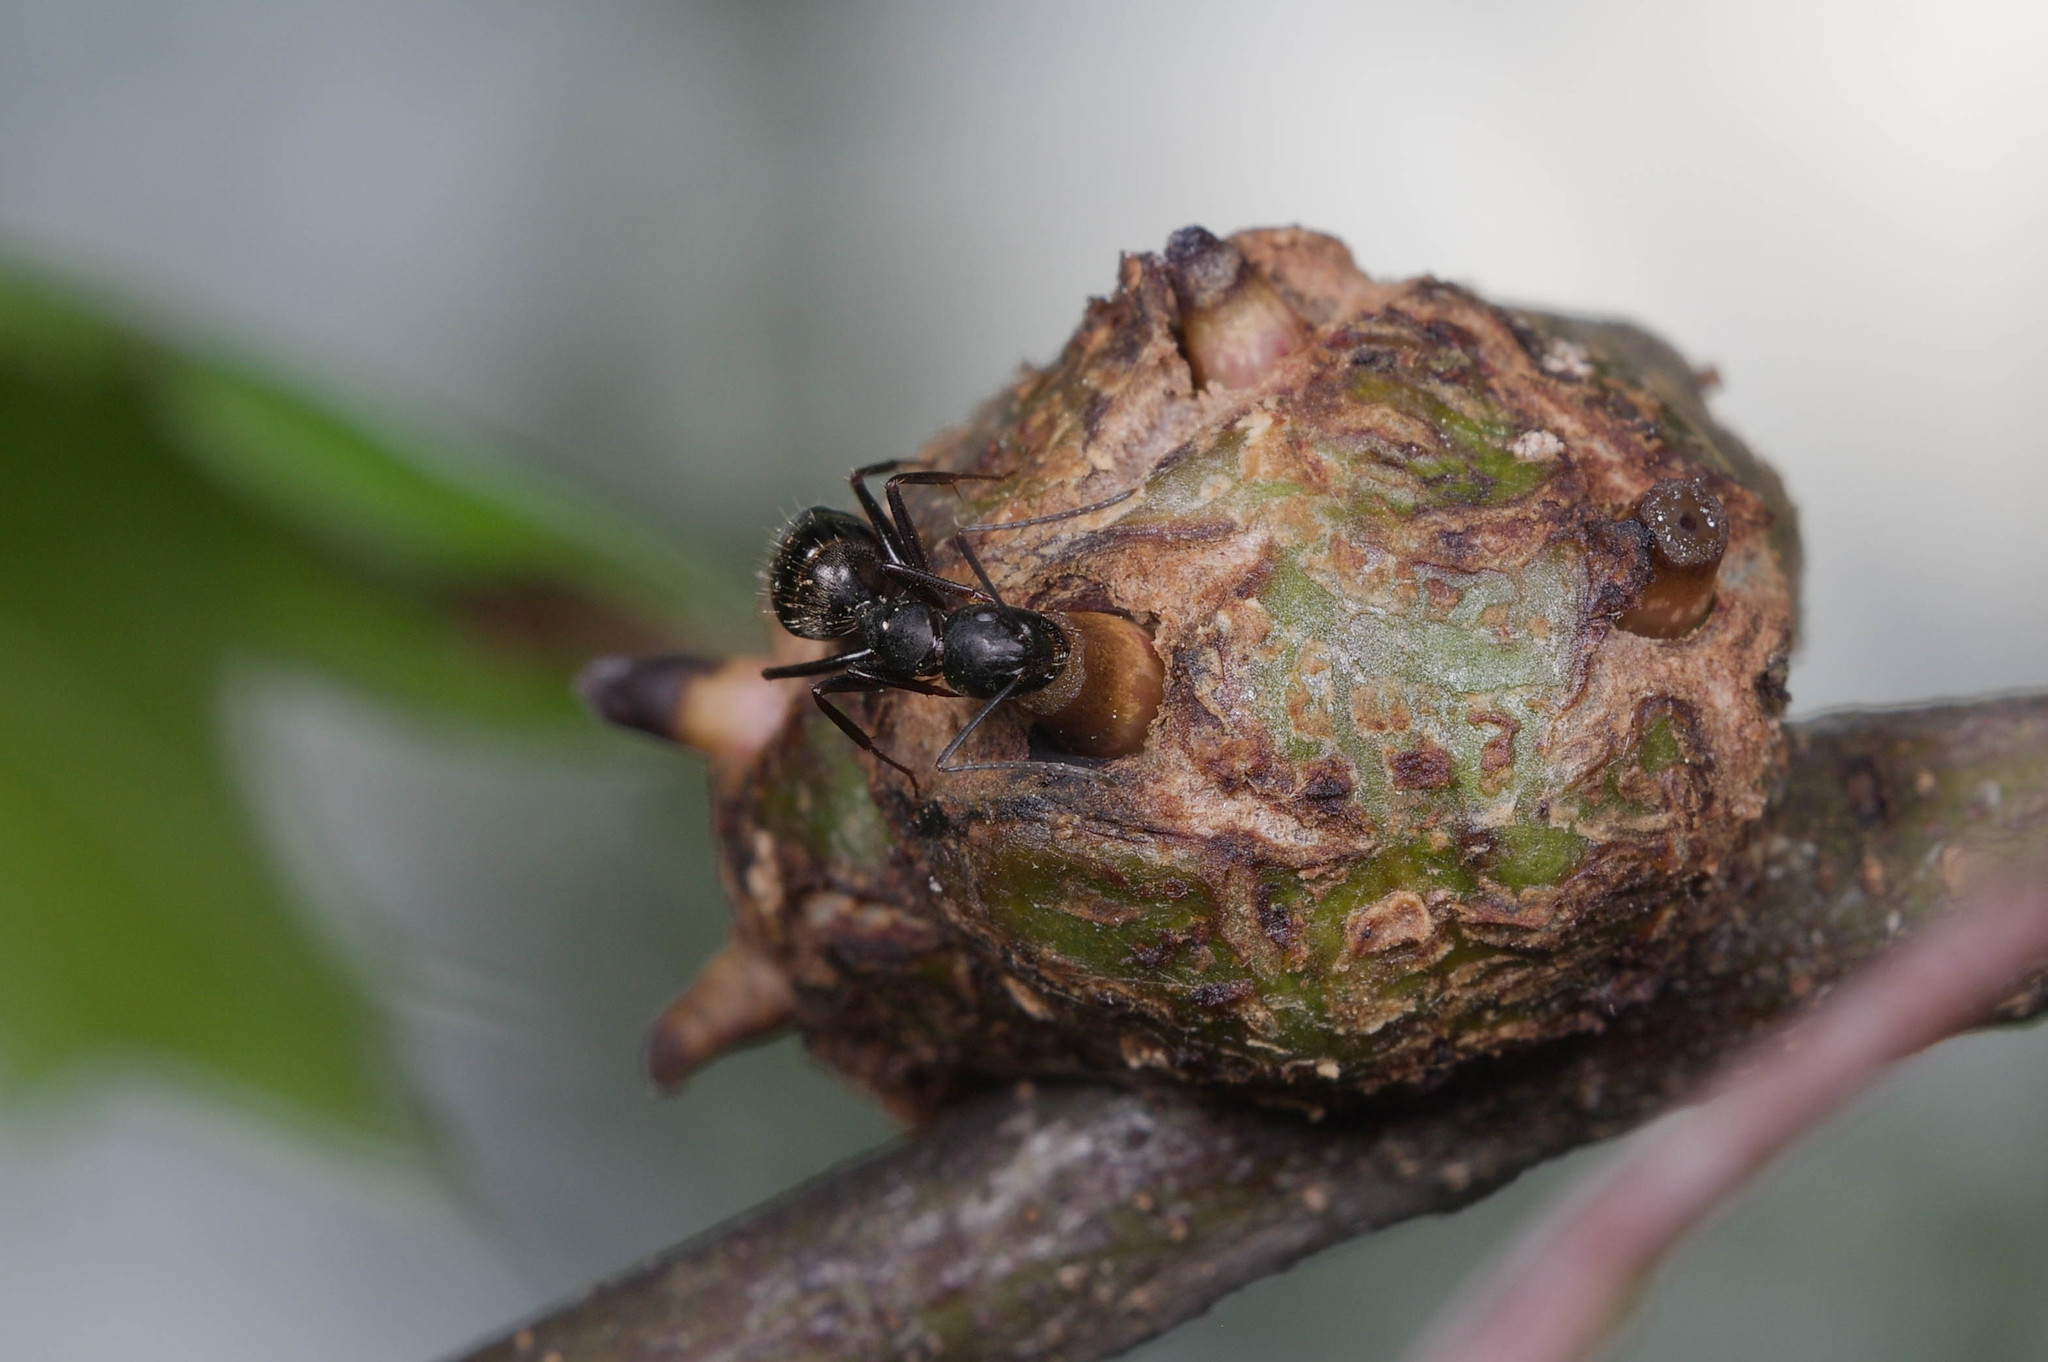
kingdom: Animalia
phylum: Arthropoda
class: Insecta
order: Hymenoptera
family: Cynipidae
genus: Callirhytis
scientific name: Callirhytis
